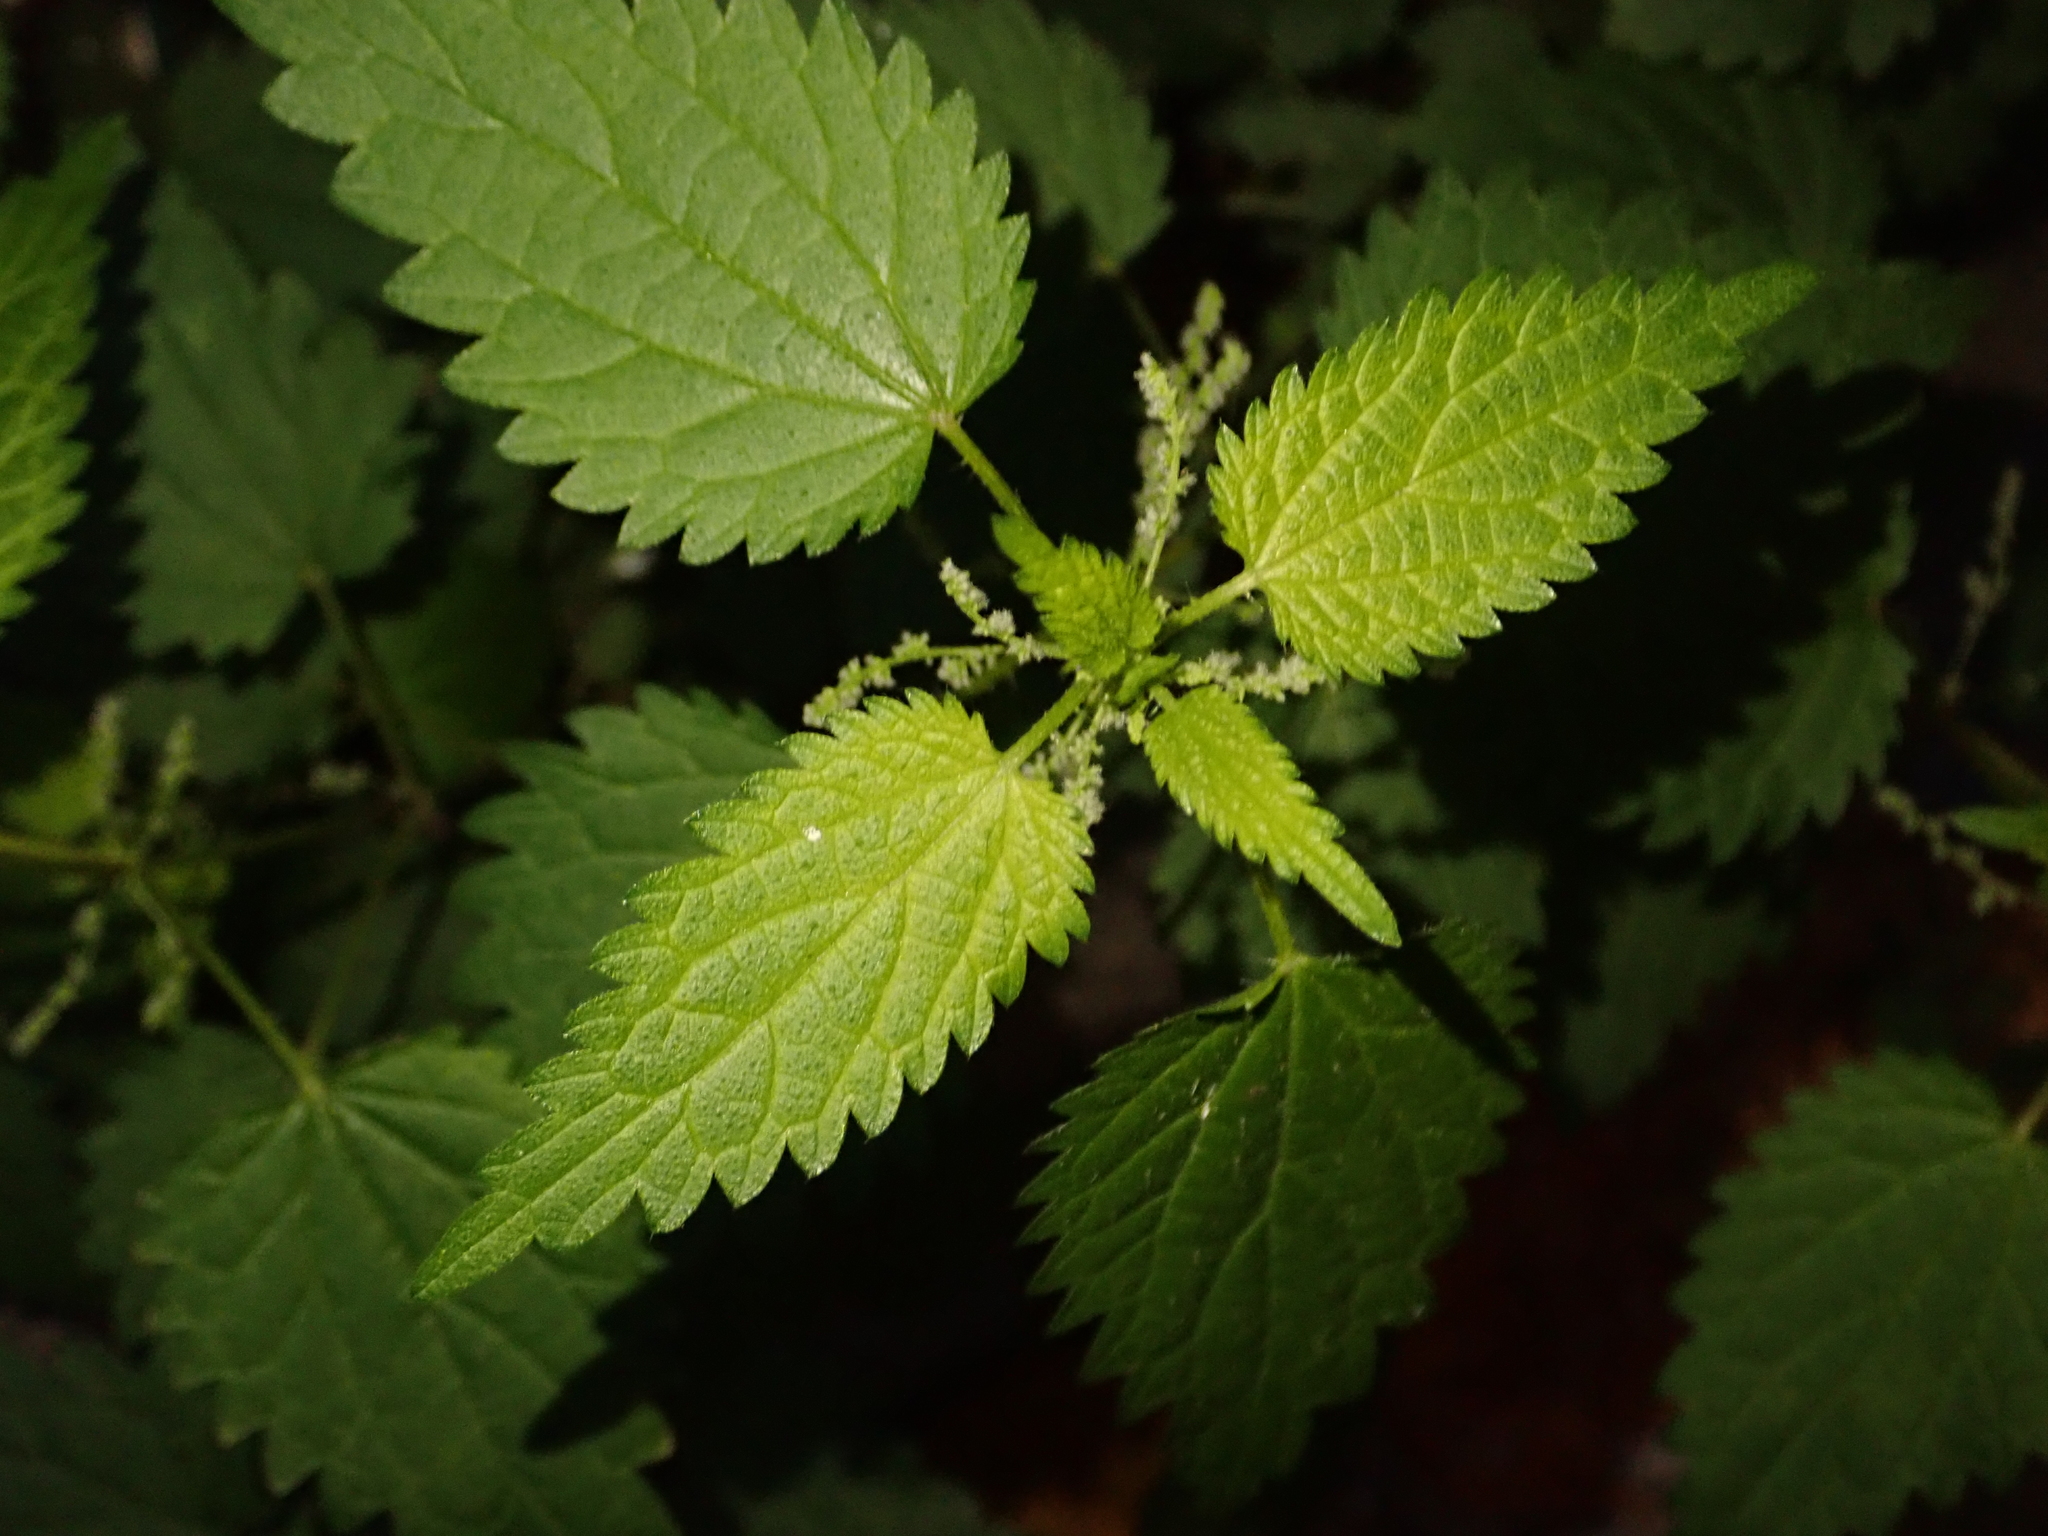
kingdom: Plantae
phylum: Tracheophyta
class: Magnoliopsida
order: Rosales
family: Urticaceae
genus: Urtica
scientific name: Urtica dioica
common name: Common nettle
